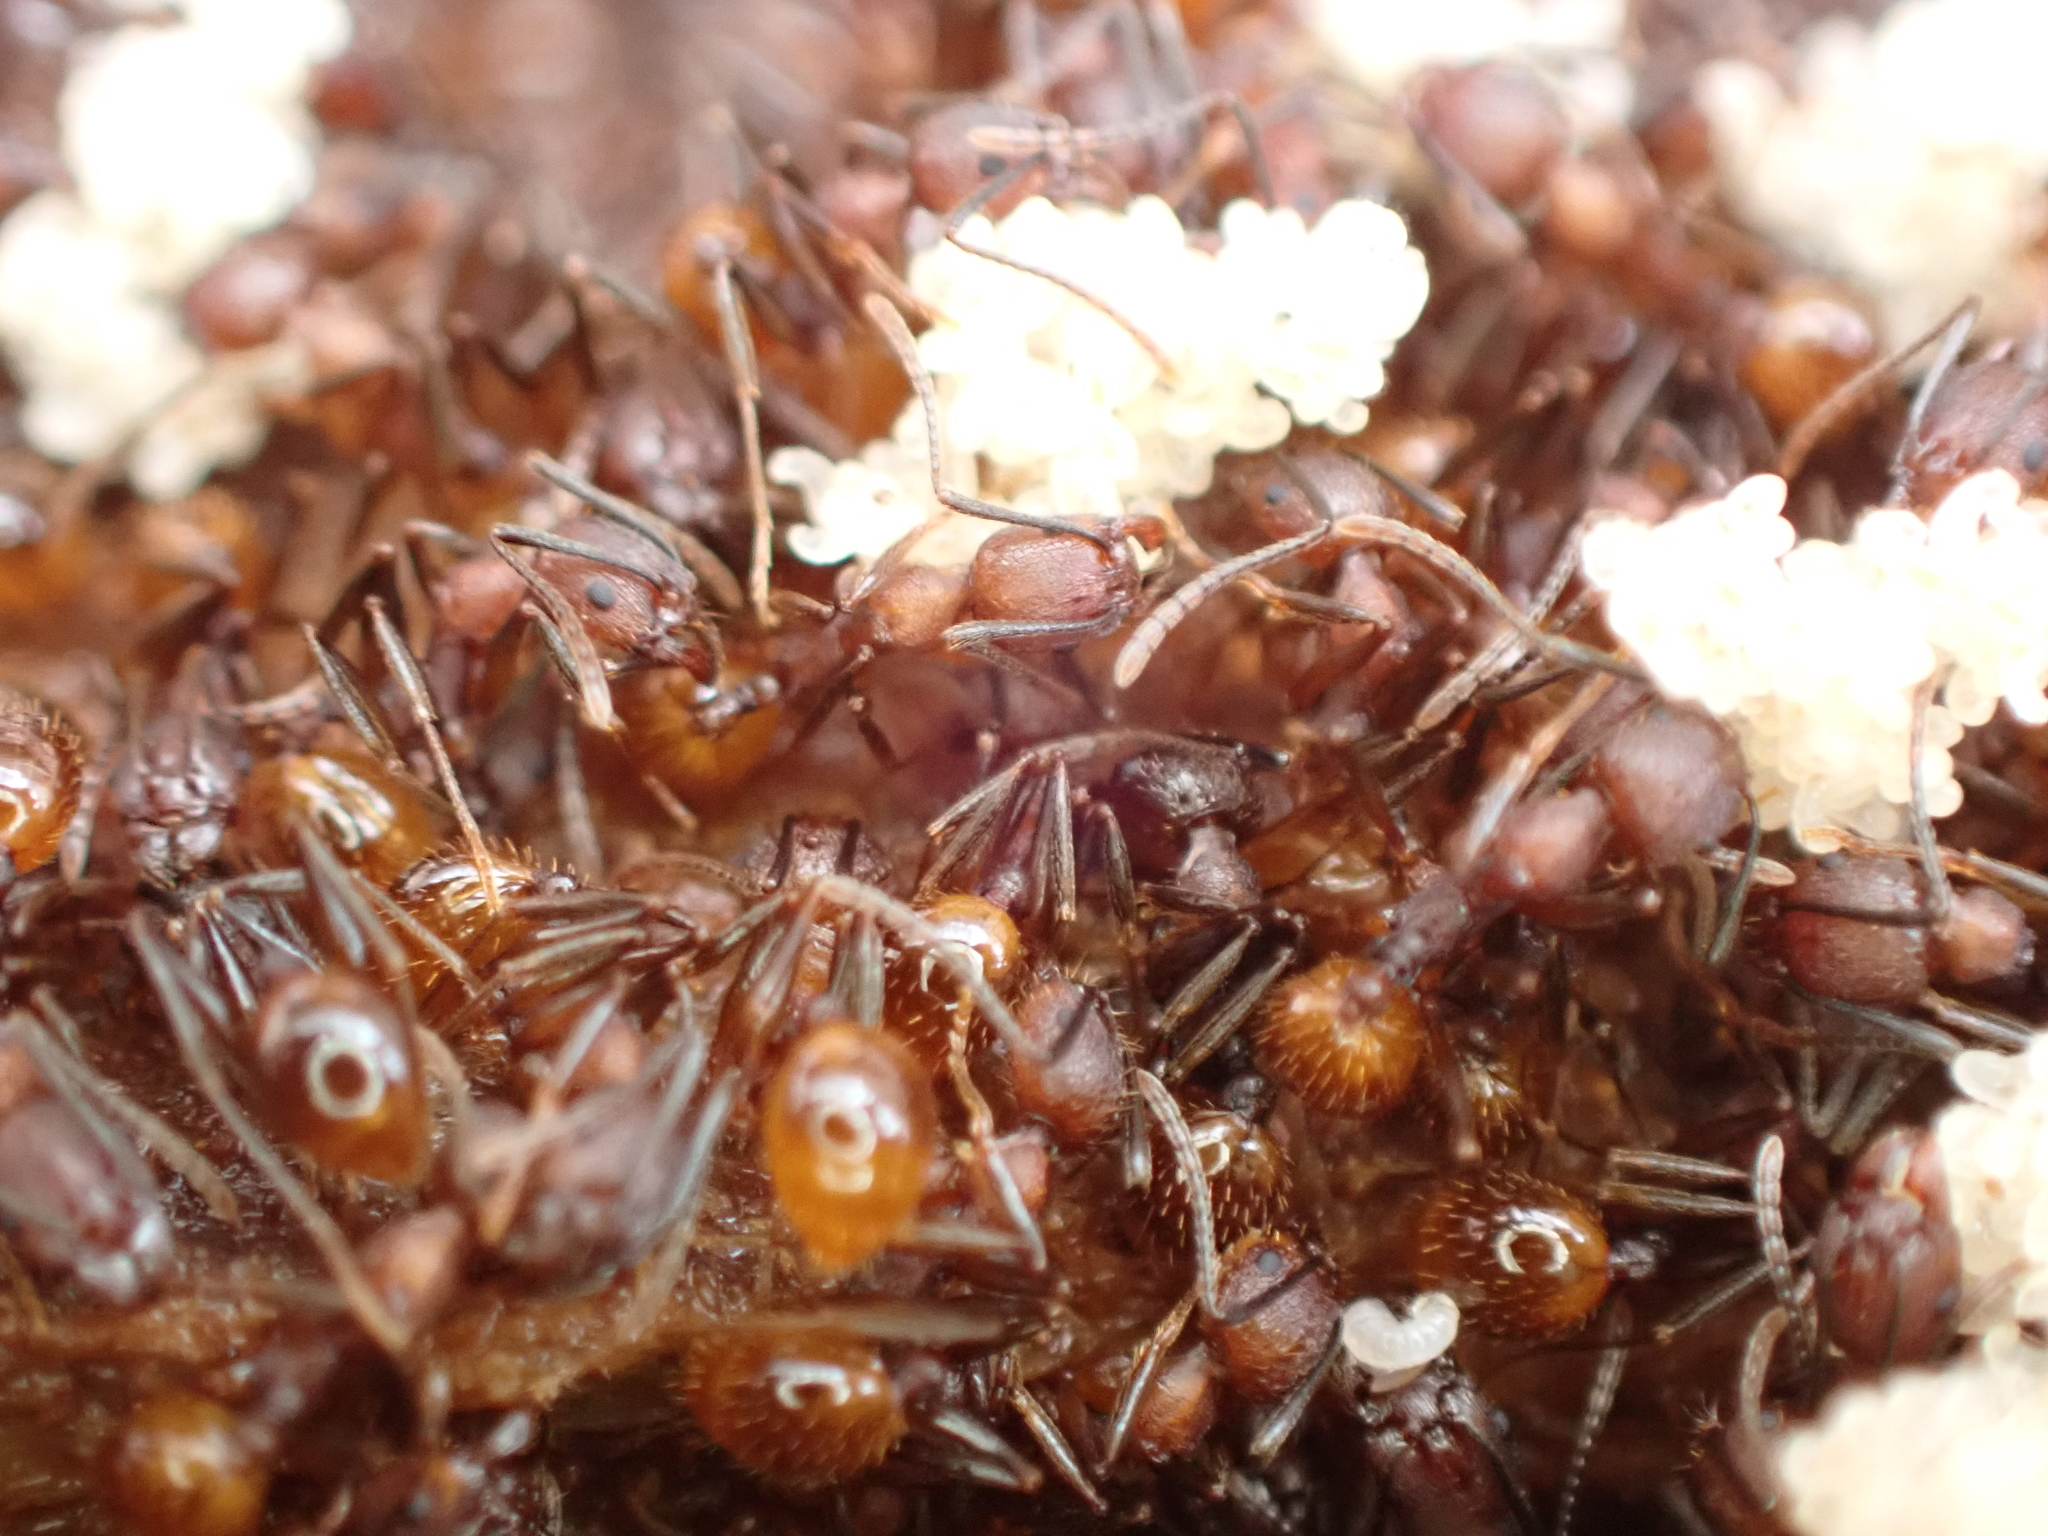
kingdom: Animalia
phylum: Arthropoda
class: Insecta
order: Hymenoptera
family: Formicidae
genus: Aphaenogaster
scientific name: Aphaenogaster fulva
